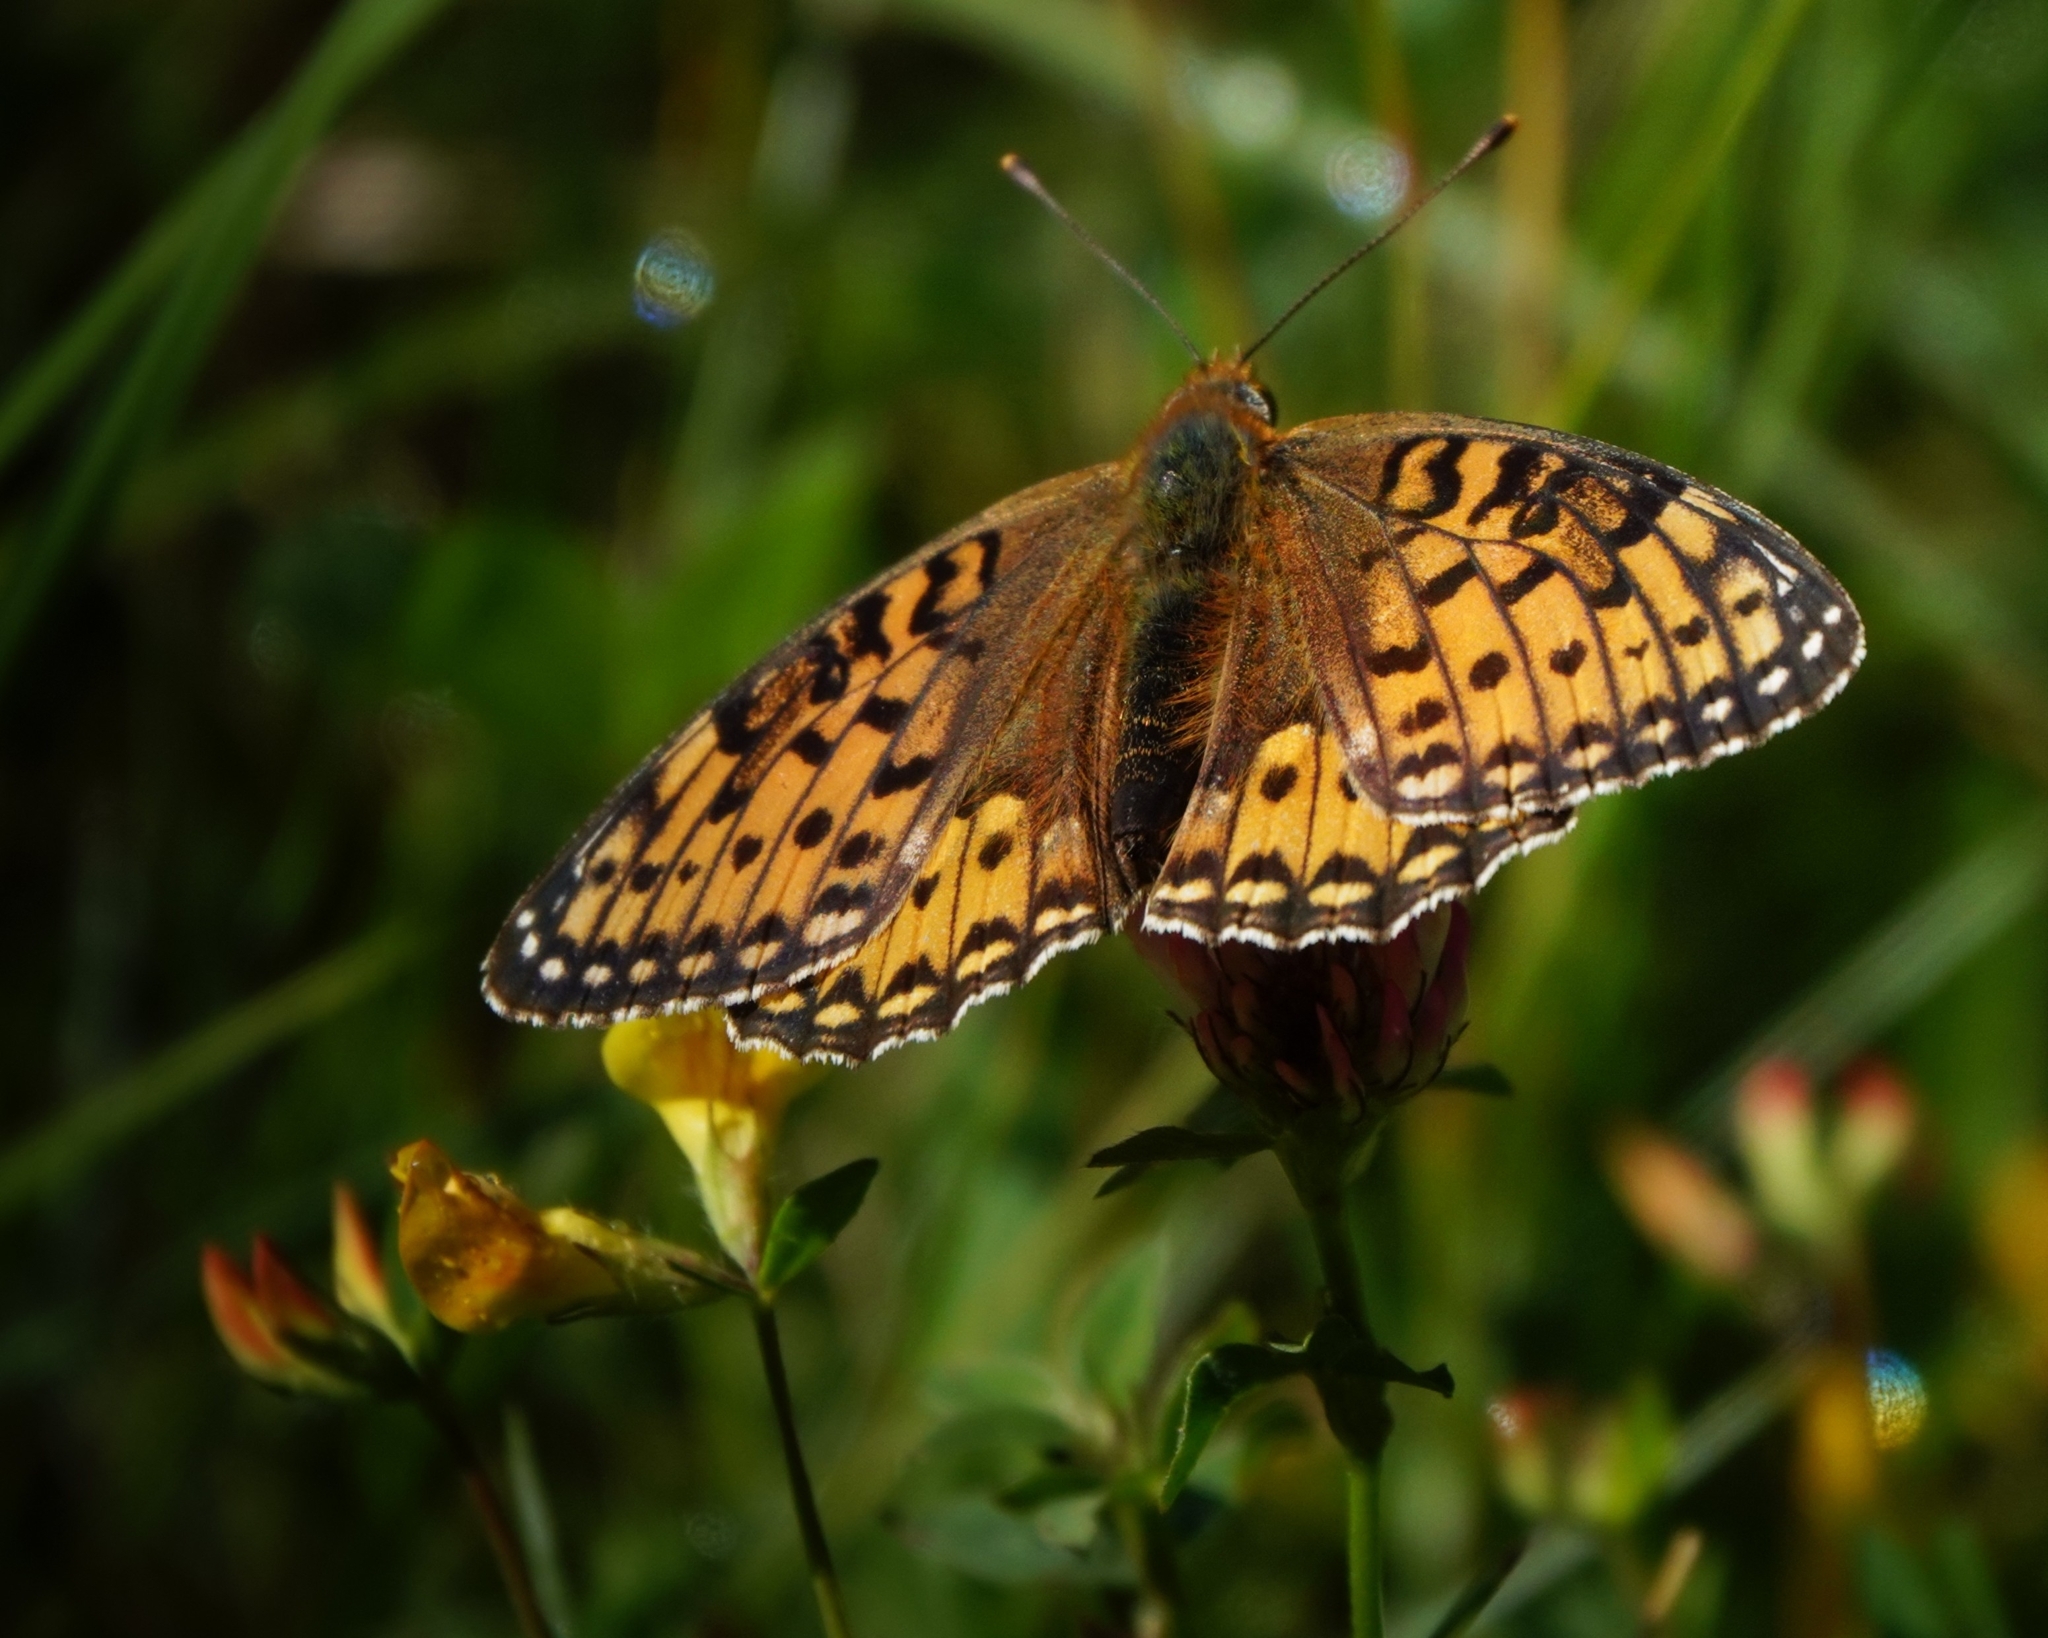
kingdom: Animalia
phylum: Arthropoda
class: Insecta
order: Lepidoptera
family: Nymphalidae
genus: Speyeria
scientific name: Speyeria aglaja
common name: Dark green fritillary
